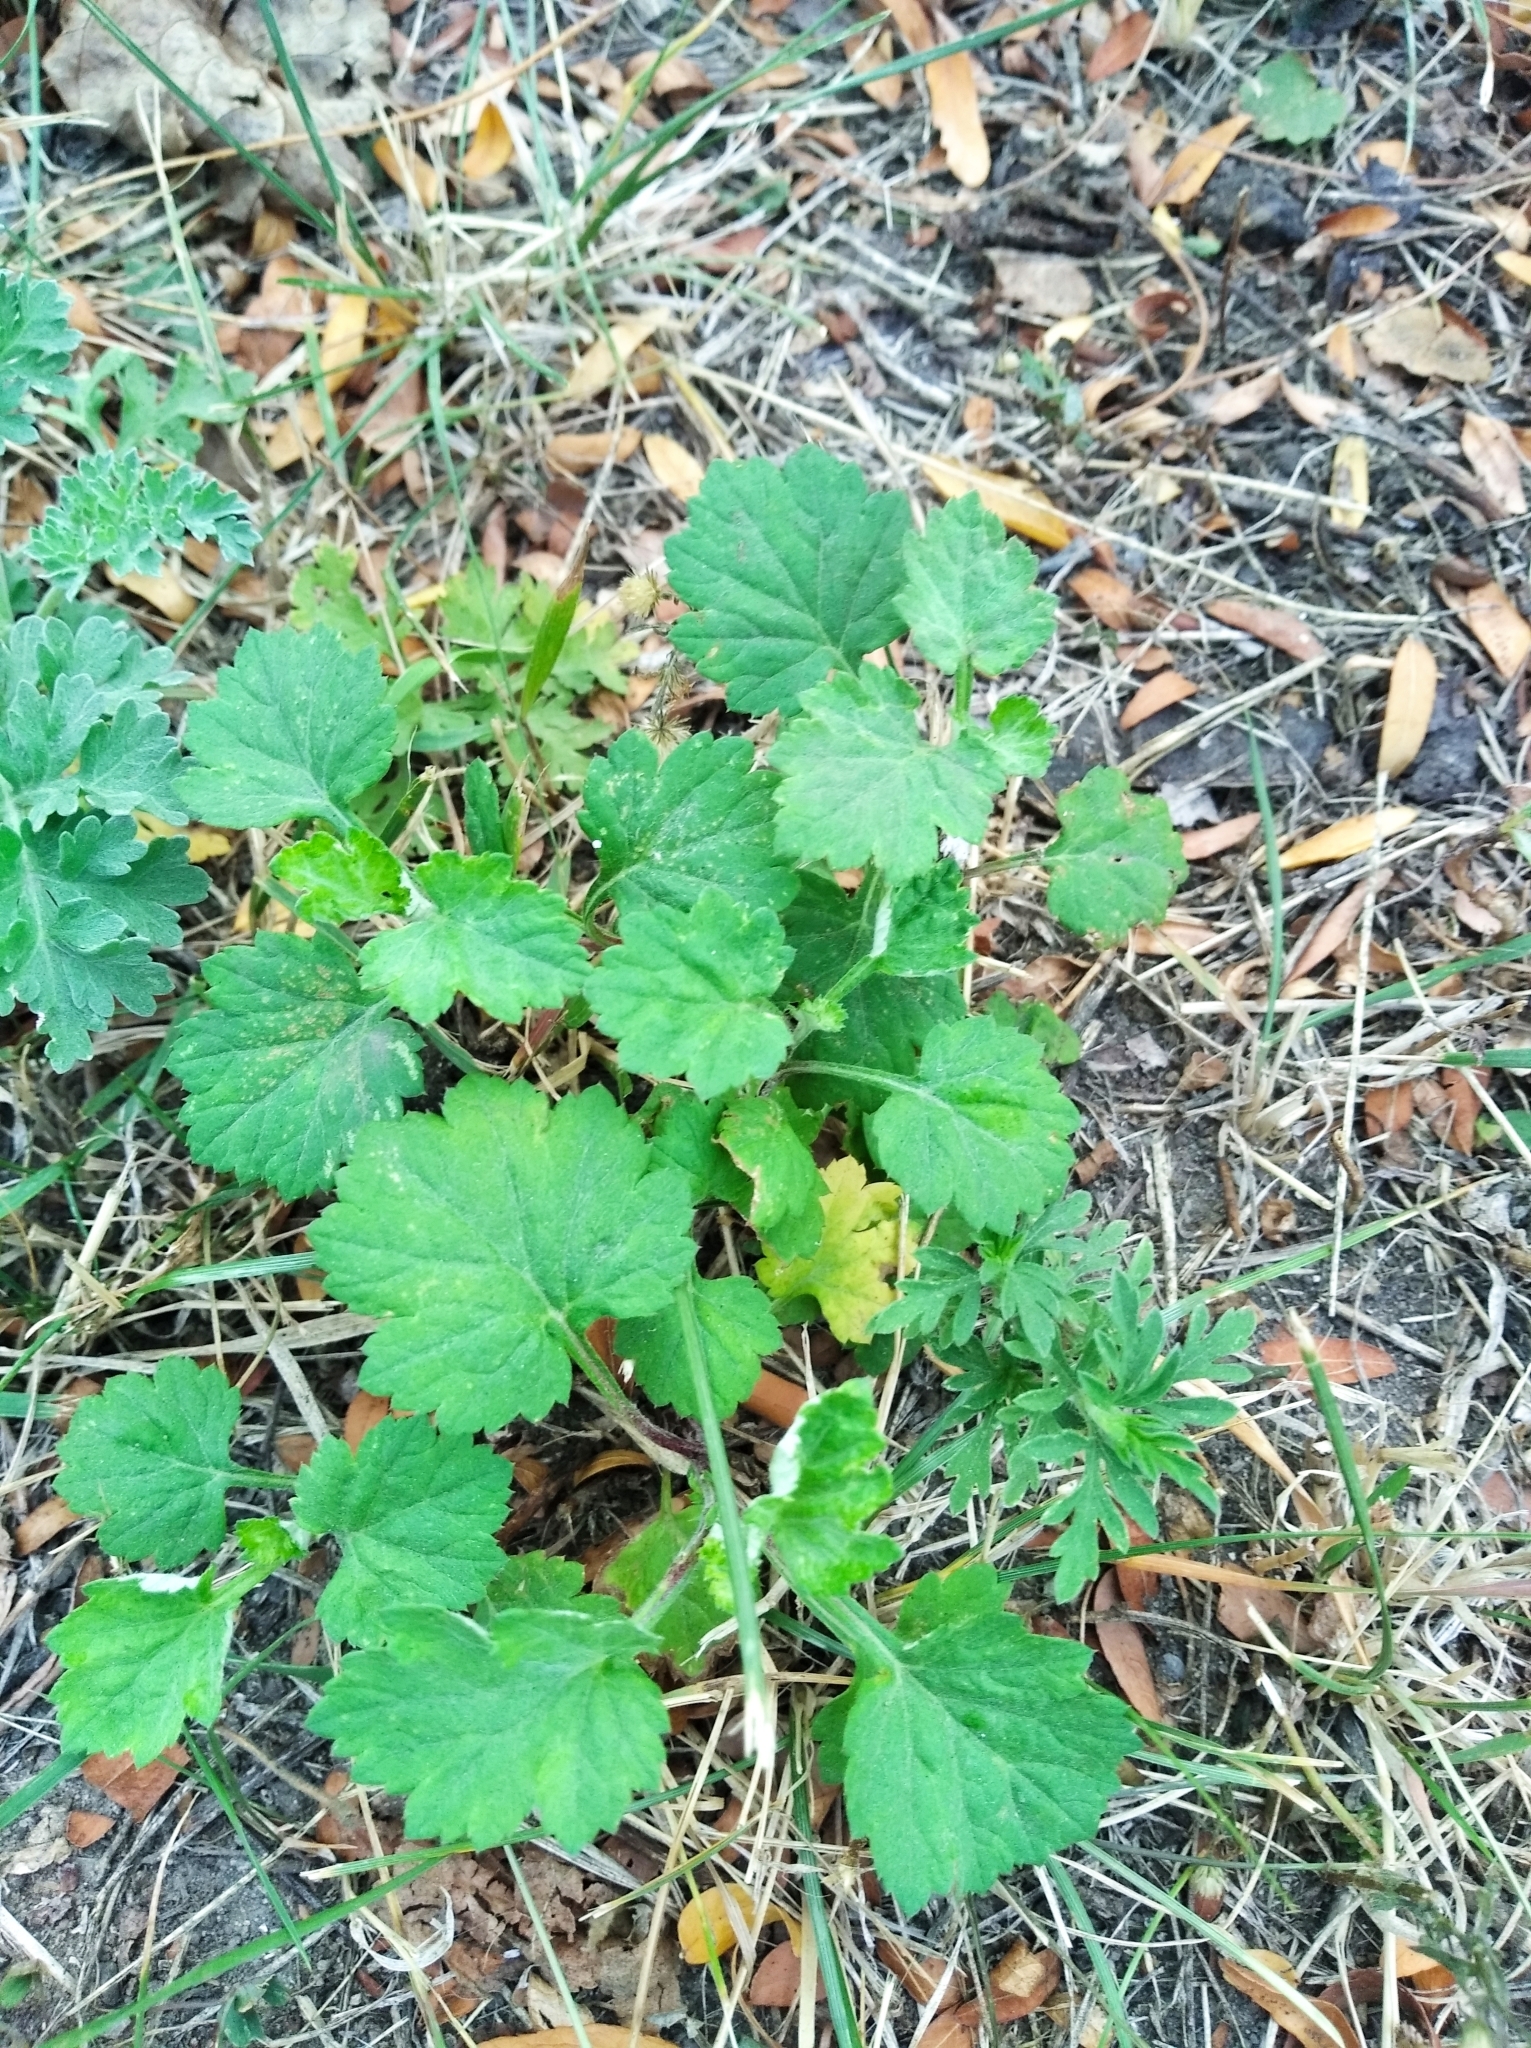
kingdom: Plantae
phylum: Tracheophyta
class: Magnoliopsida
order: Asterales
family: Asteraceae
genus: Artemisia
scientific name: Artemisia vulgaris
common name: Mugwort
